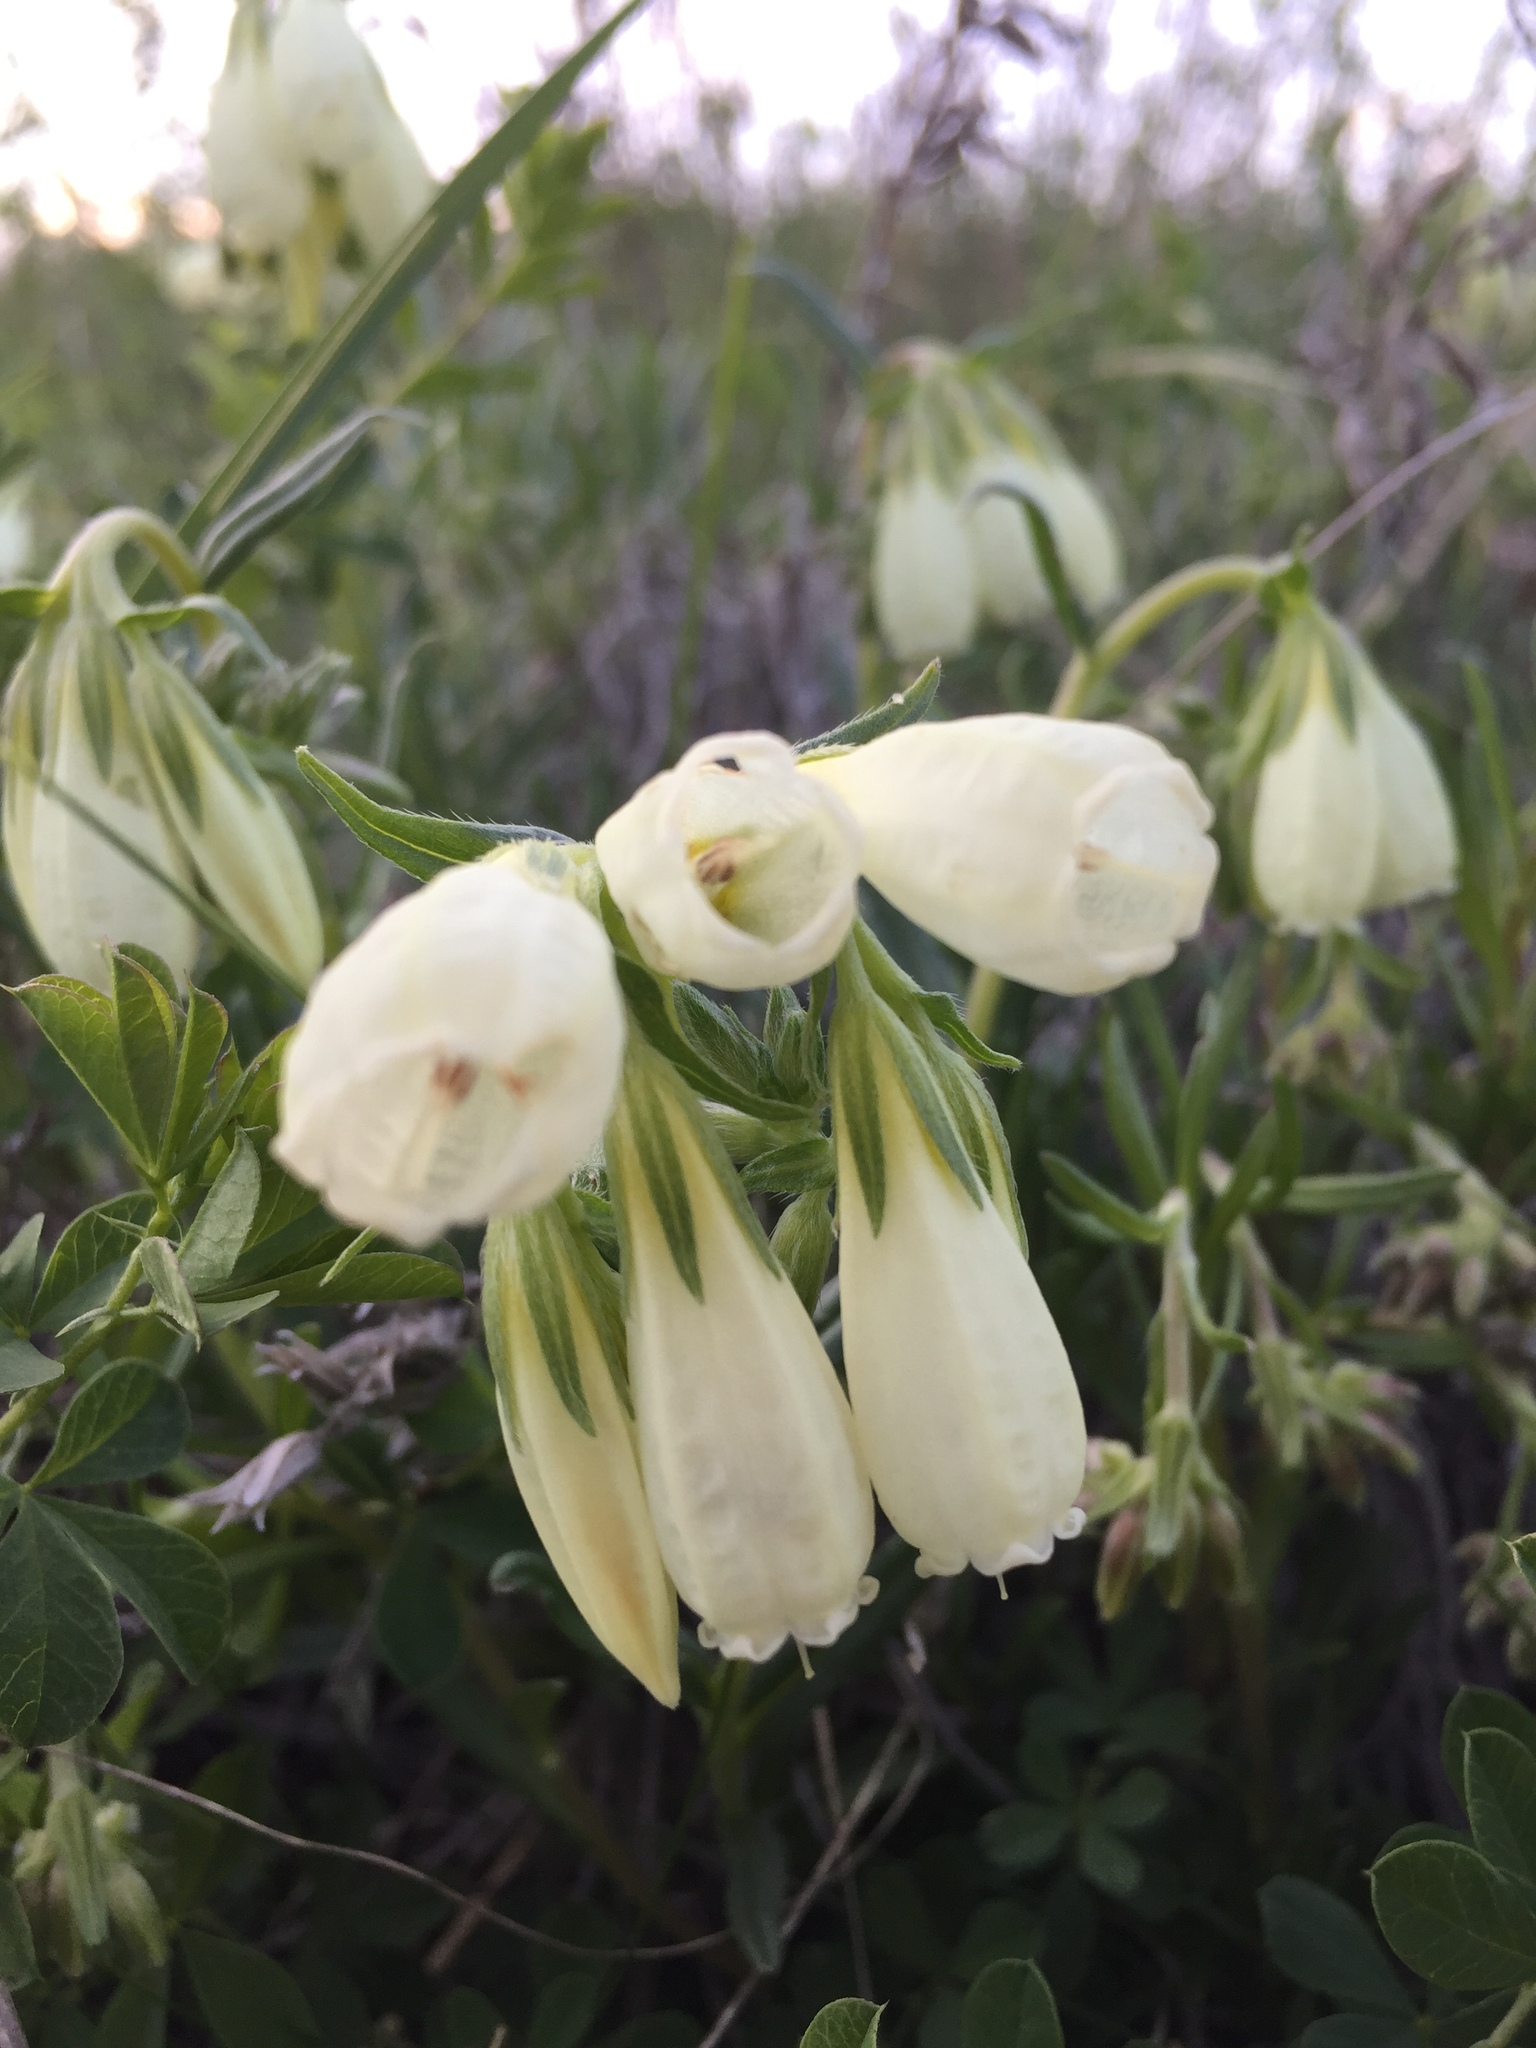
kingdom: Plantae
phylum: Tracheophyta
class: Magnoliopsida
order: Boraginales
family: Boraginaceae
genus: Onosma
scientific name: Onosma simplicissima
